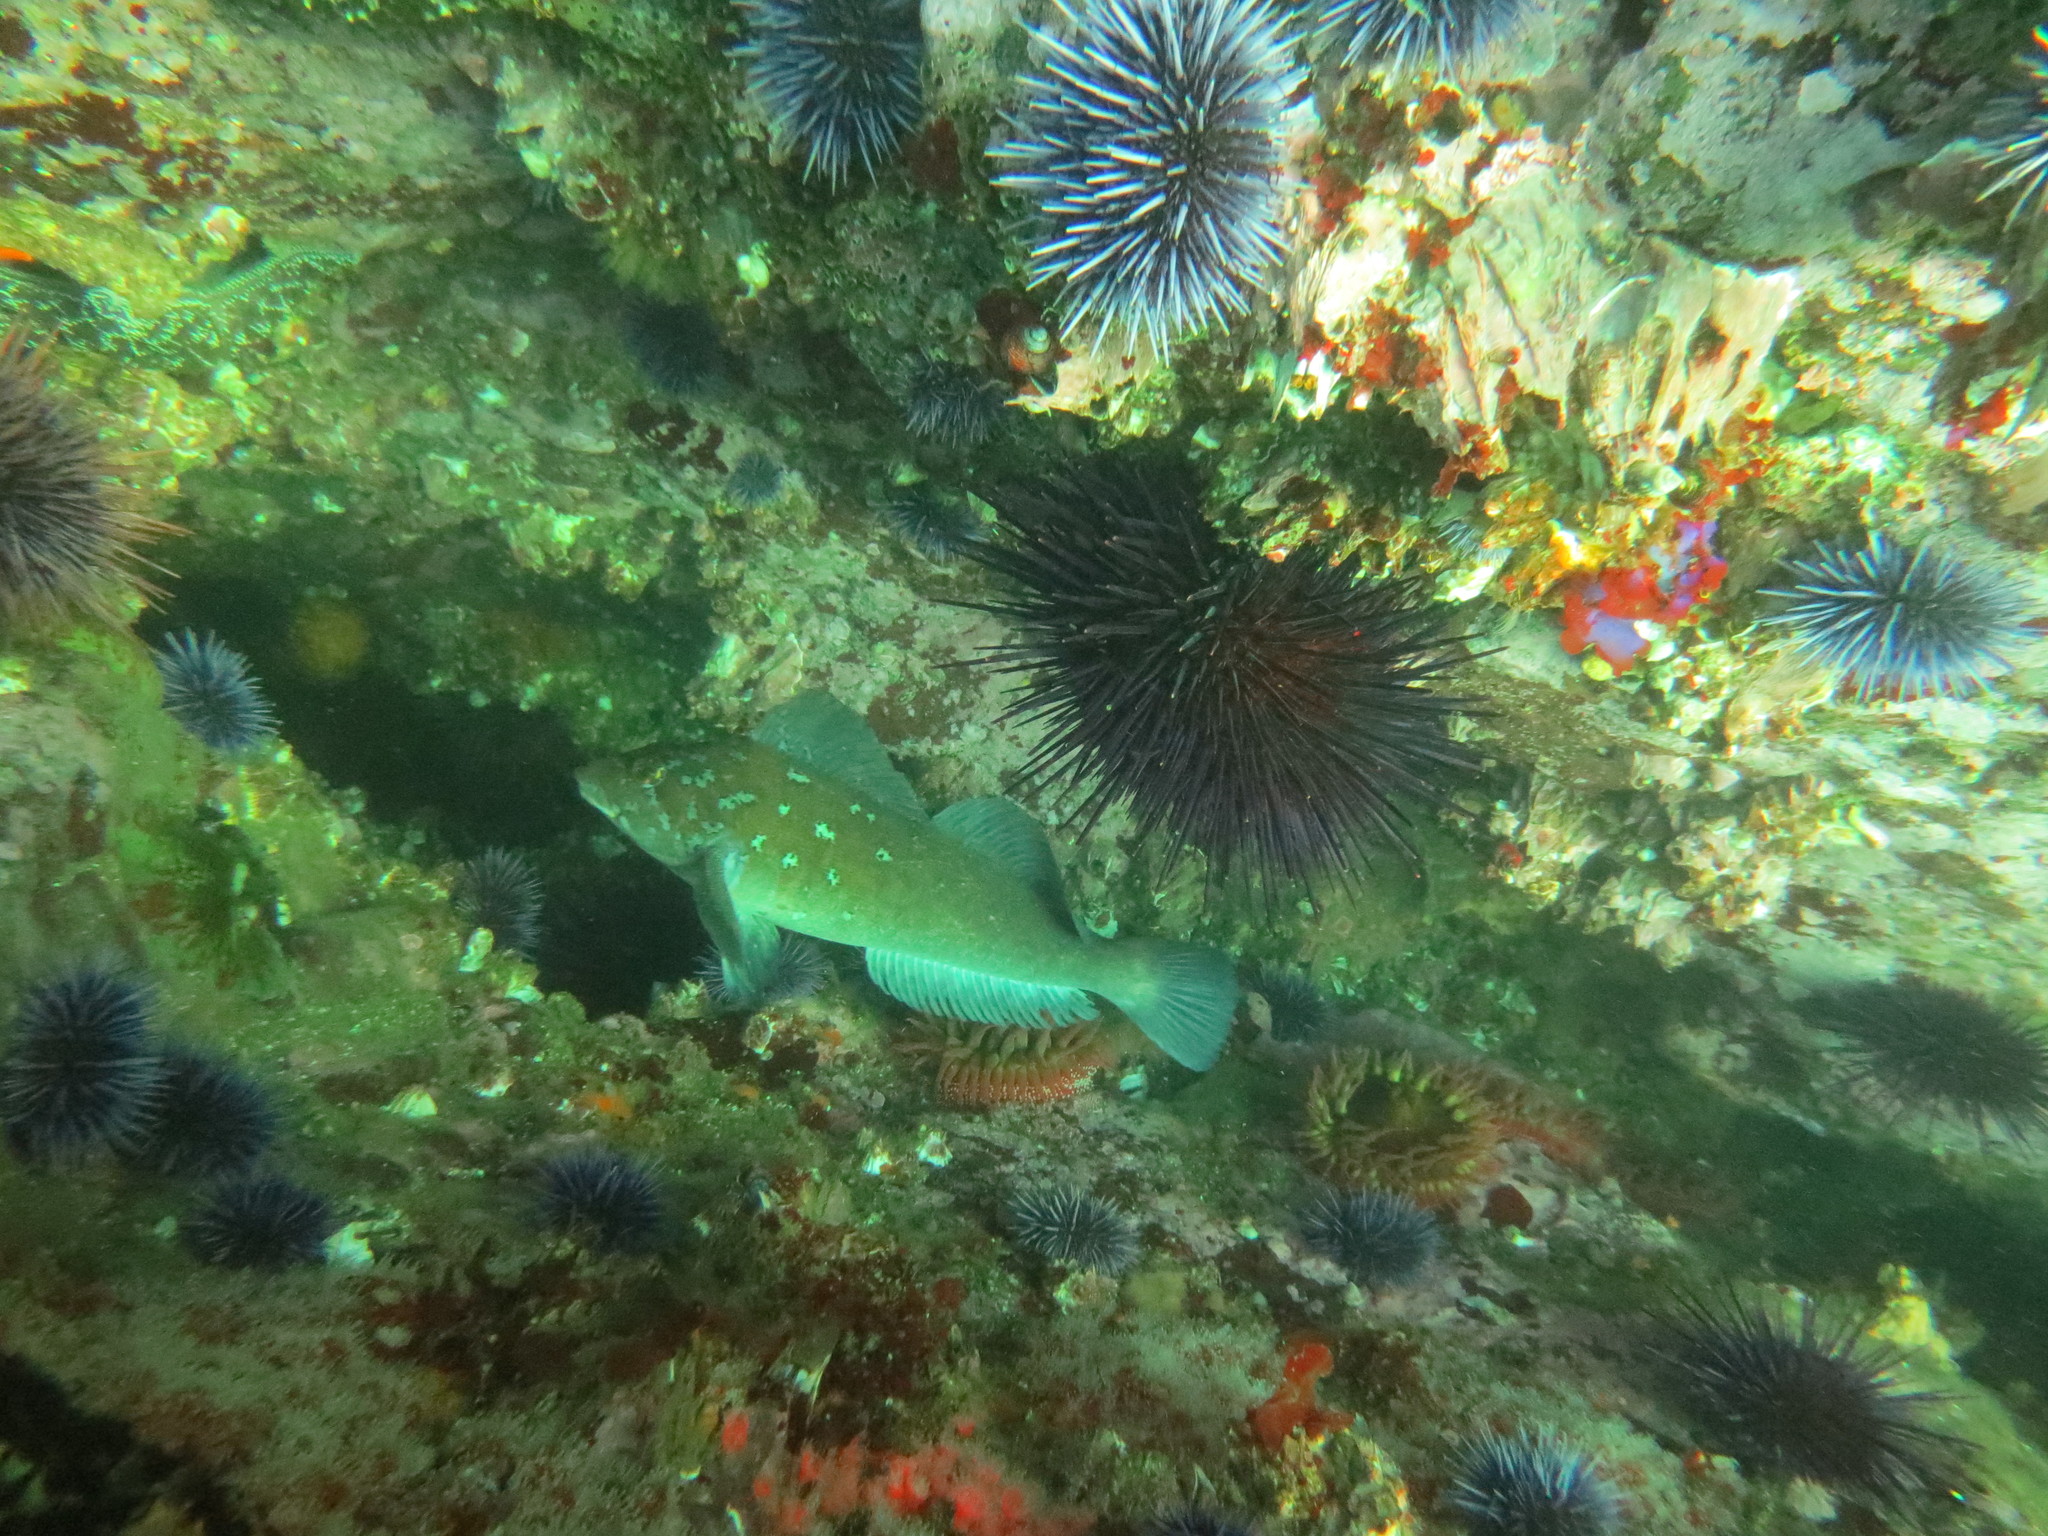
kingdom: Animalia
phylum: Chordata
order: Scorpaeniformes
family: Hexagrammidae
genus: Hexagrammos
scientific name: Hexagrammos decagrammus
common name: Kelp greenling
